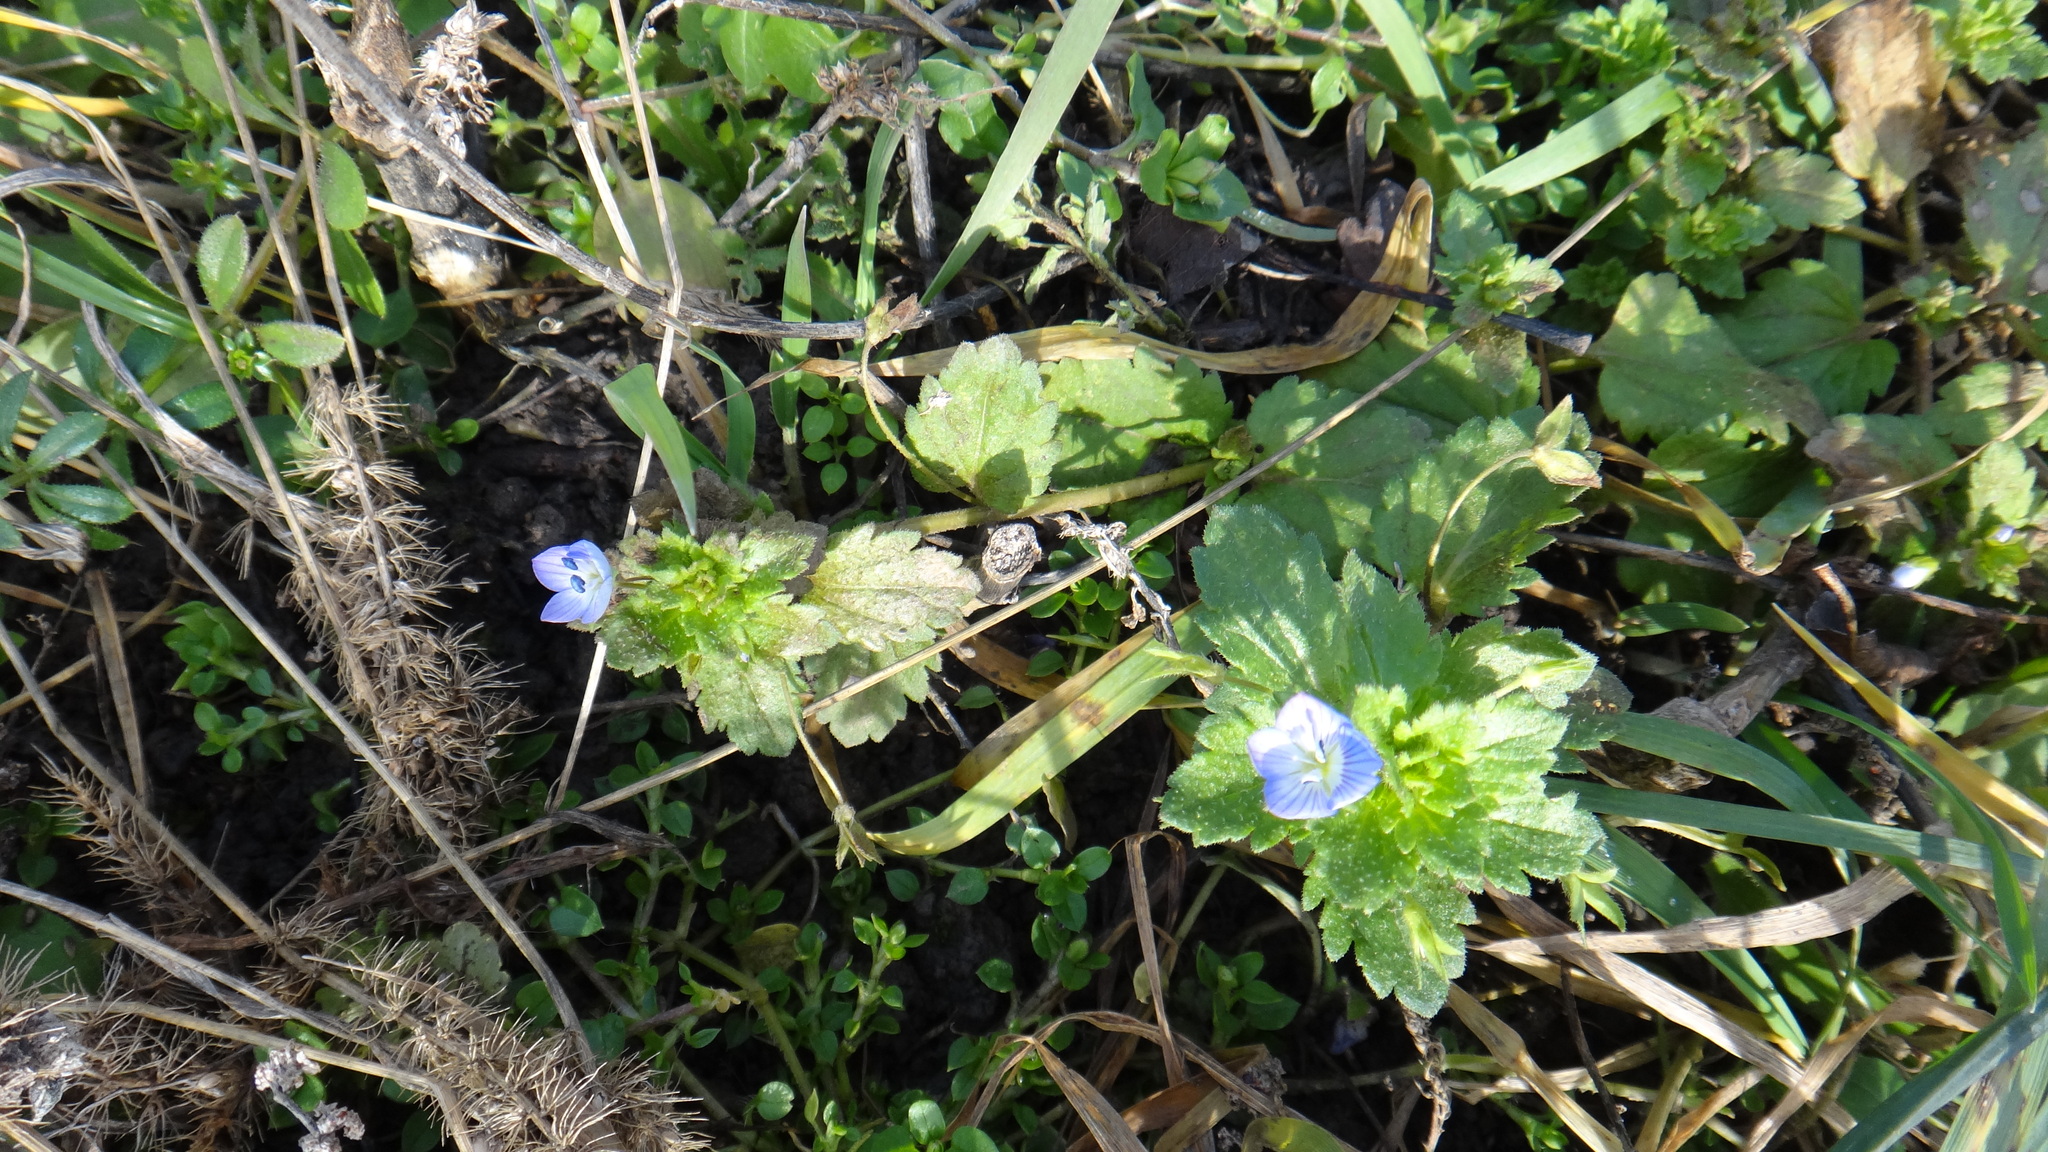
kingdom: Plantae
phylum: Tracheophyta
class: Magnoliopsida
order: Lamiales
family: Plantaginaceae
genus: Veronica
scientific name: Veronica persica
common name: Common field-speedwell
